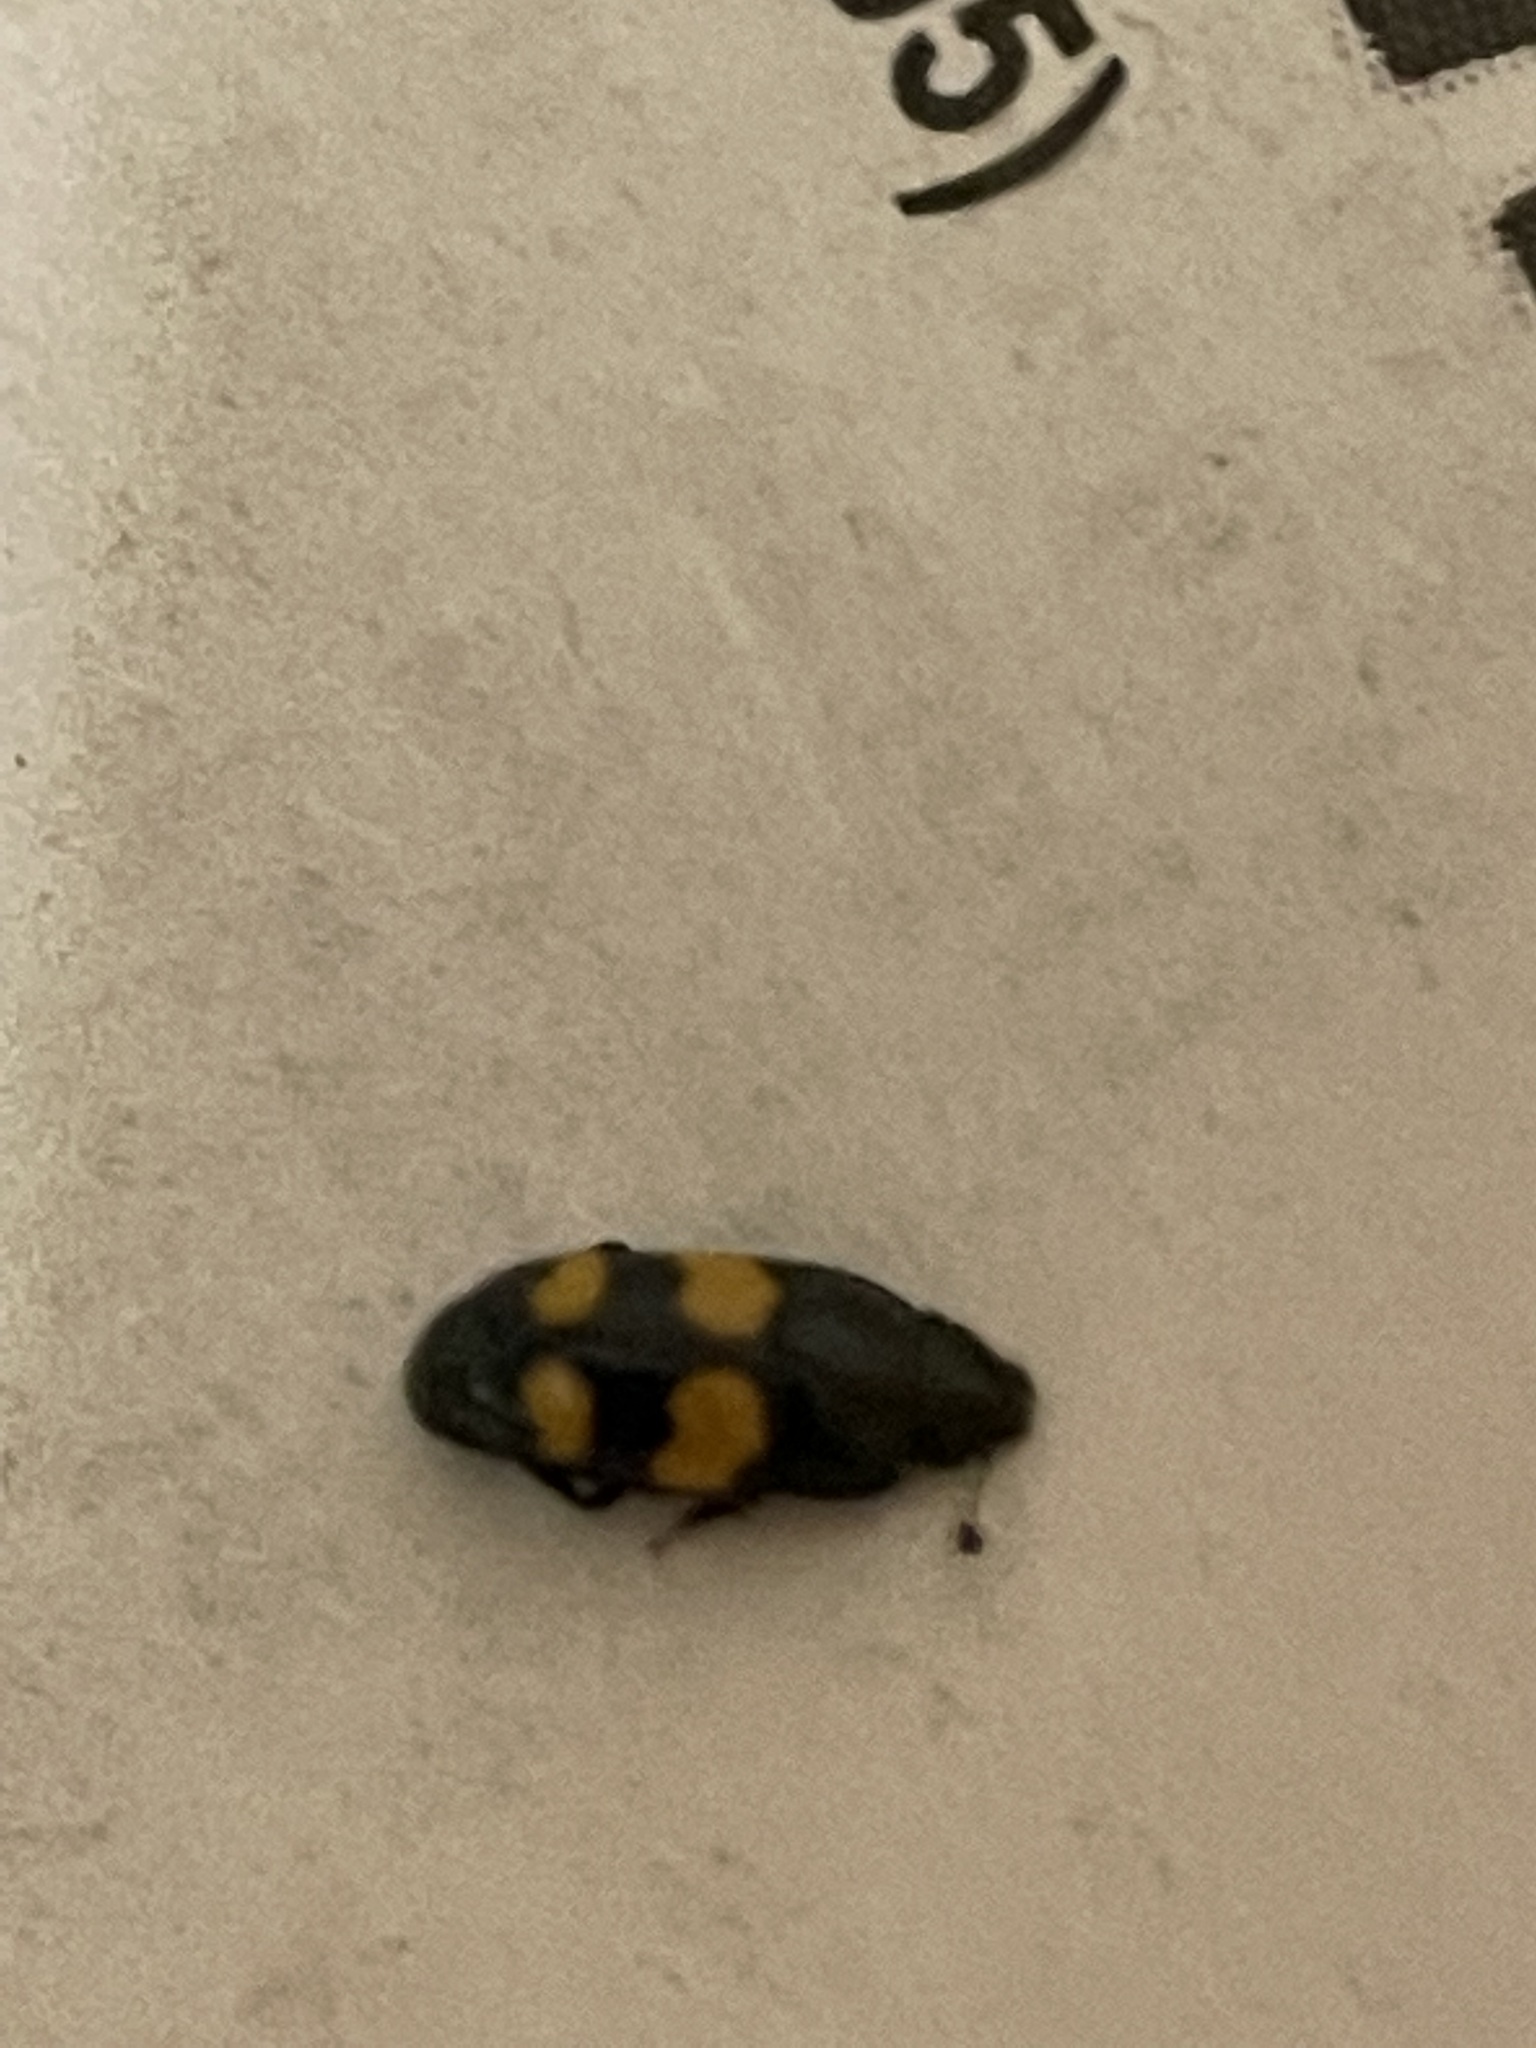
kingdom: Animalia
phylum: Arthropoda
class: Insecta
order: Coleoptera
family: Nitidulidae
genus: Glischrochilus
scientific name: Glischrochilus grandis
